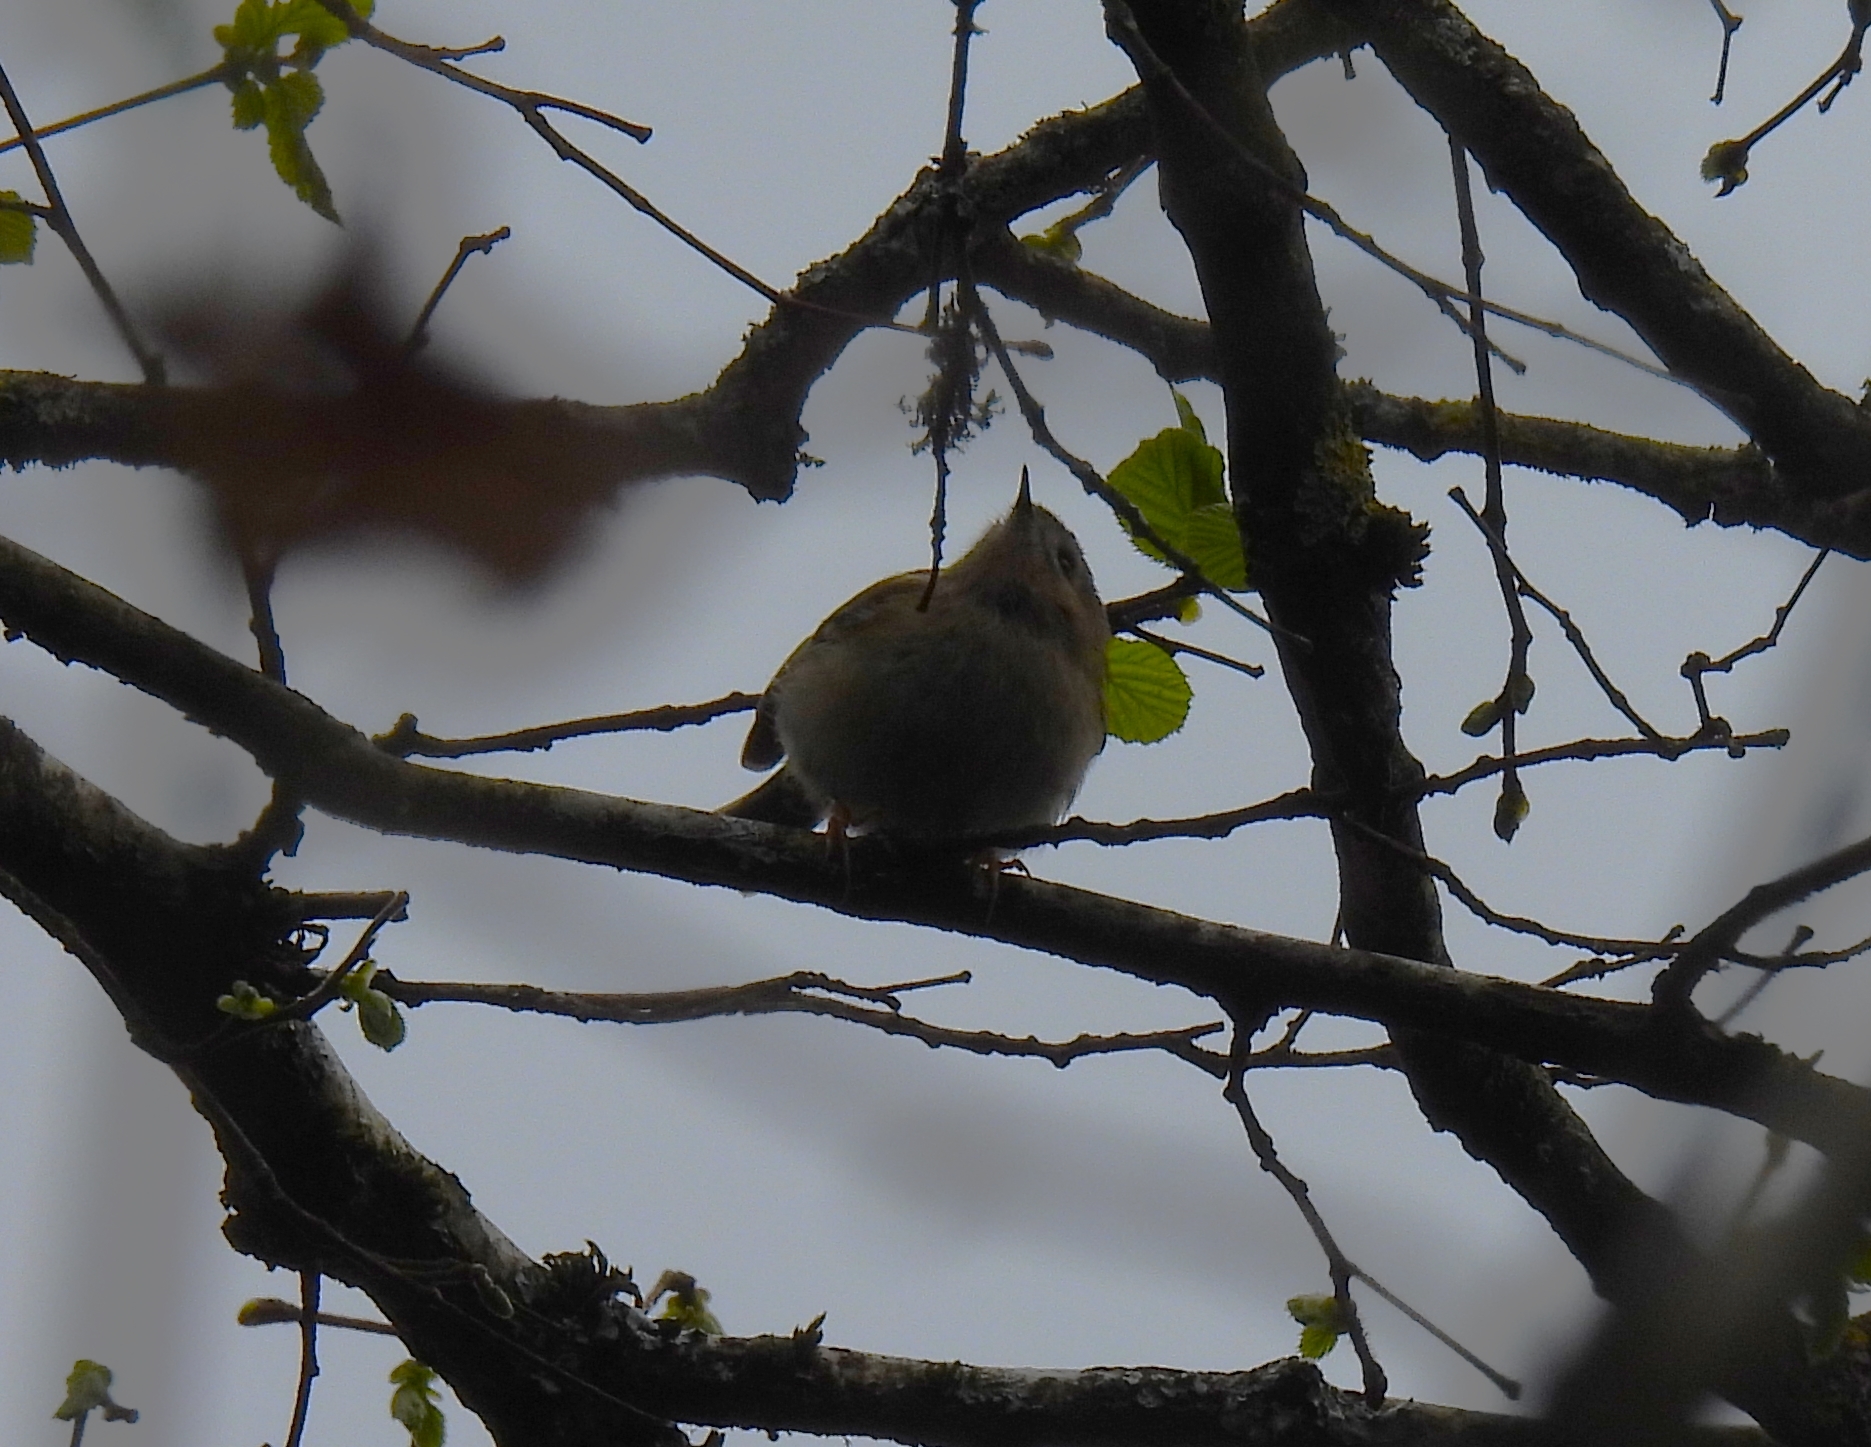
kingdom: Animalia
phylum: Chordata
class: Aves
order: Passeriformes
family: Regulidae
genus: Regulus
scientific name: Regulus regulus
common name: Goldcrest
